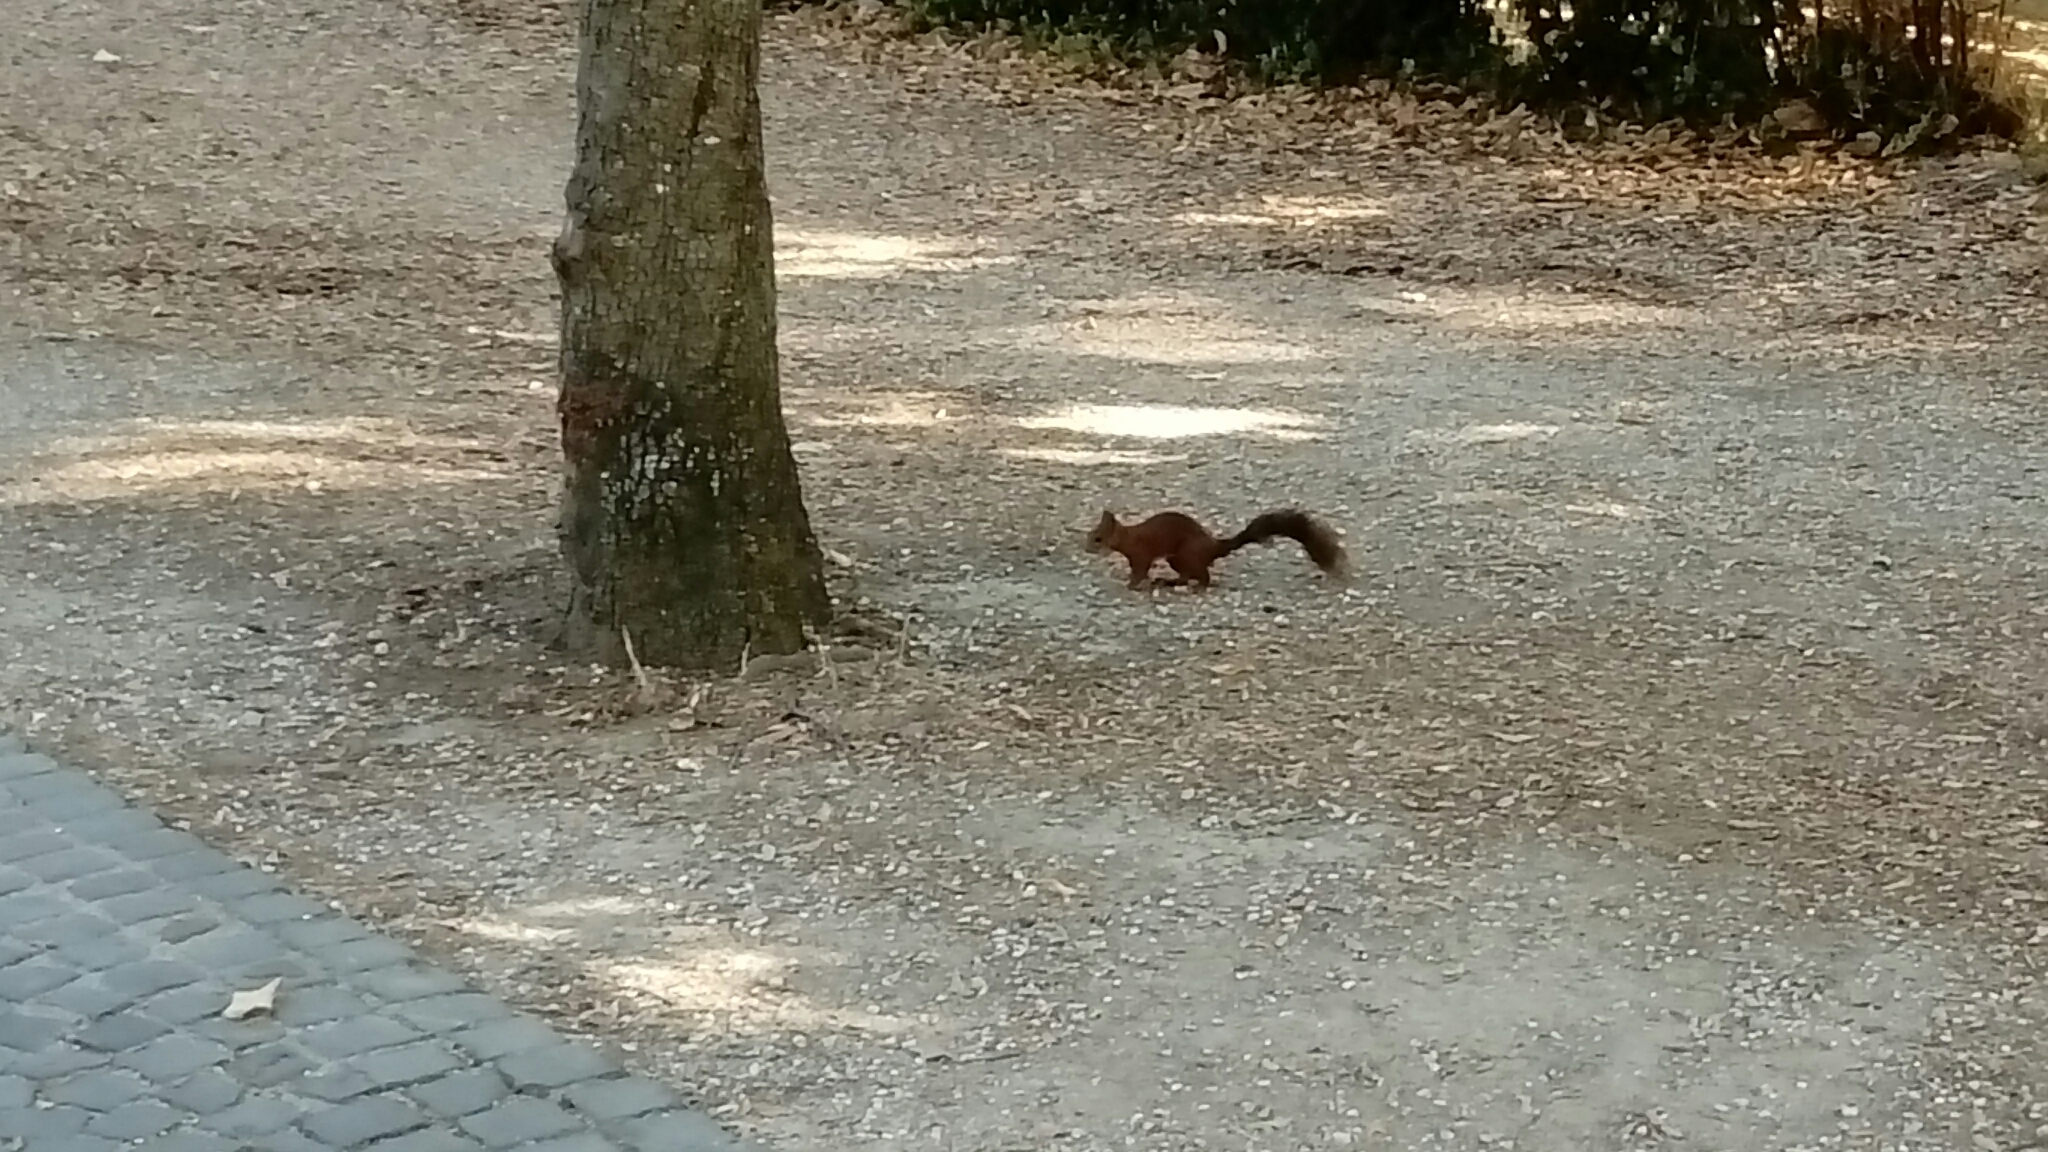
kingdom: Animalia
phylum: Chordata
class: Mammalia
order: Rodentia
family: Sciuridae
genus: Sciurus
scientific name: Sciurus vulgaris
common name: Eurasian red squirrel
